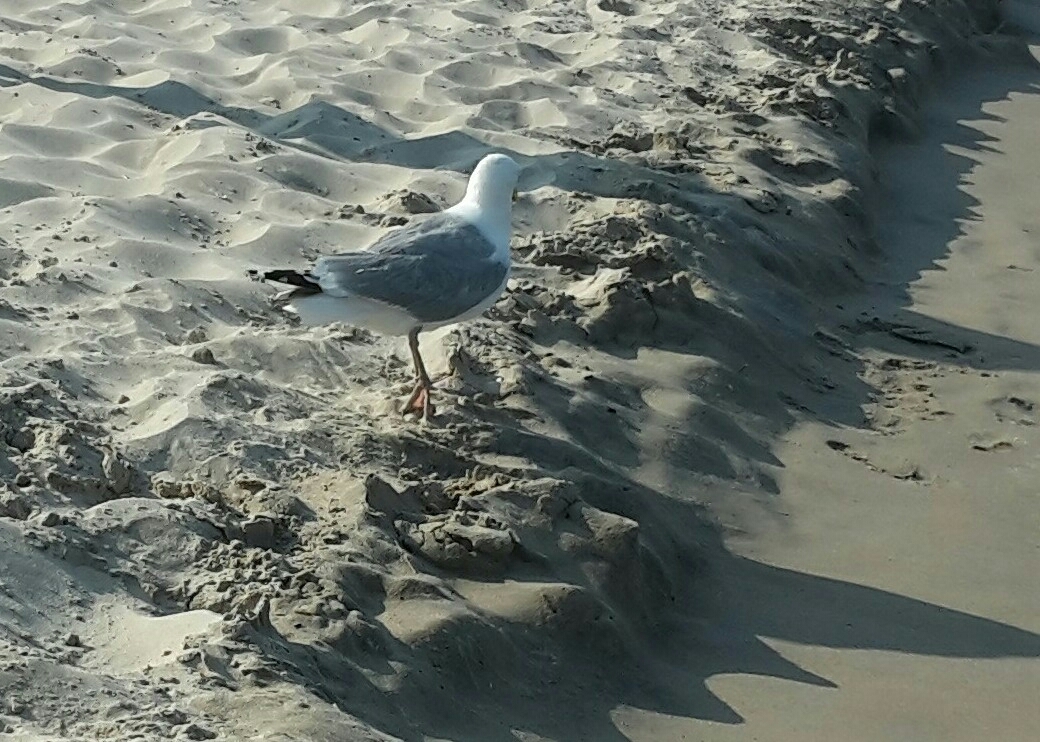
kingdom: Animalia
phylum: Chordata
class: Aves
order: Charadriiformes
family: Laridae
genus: Larus
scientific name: Larus argentatus
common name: Herring gull
